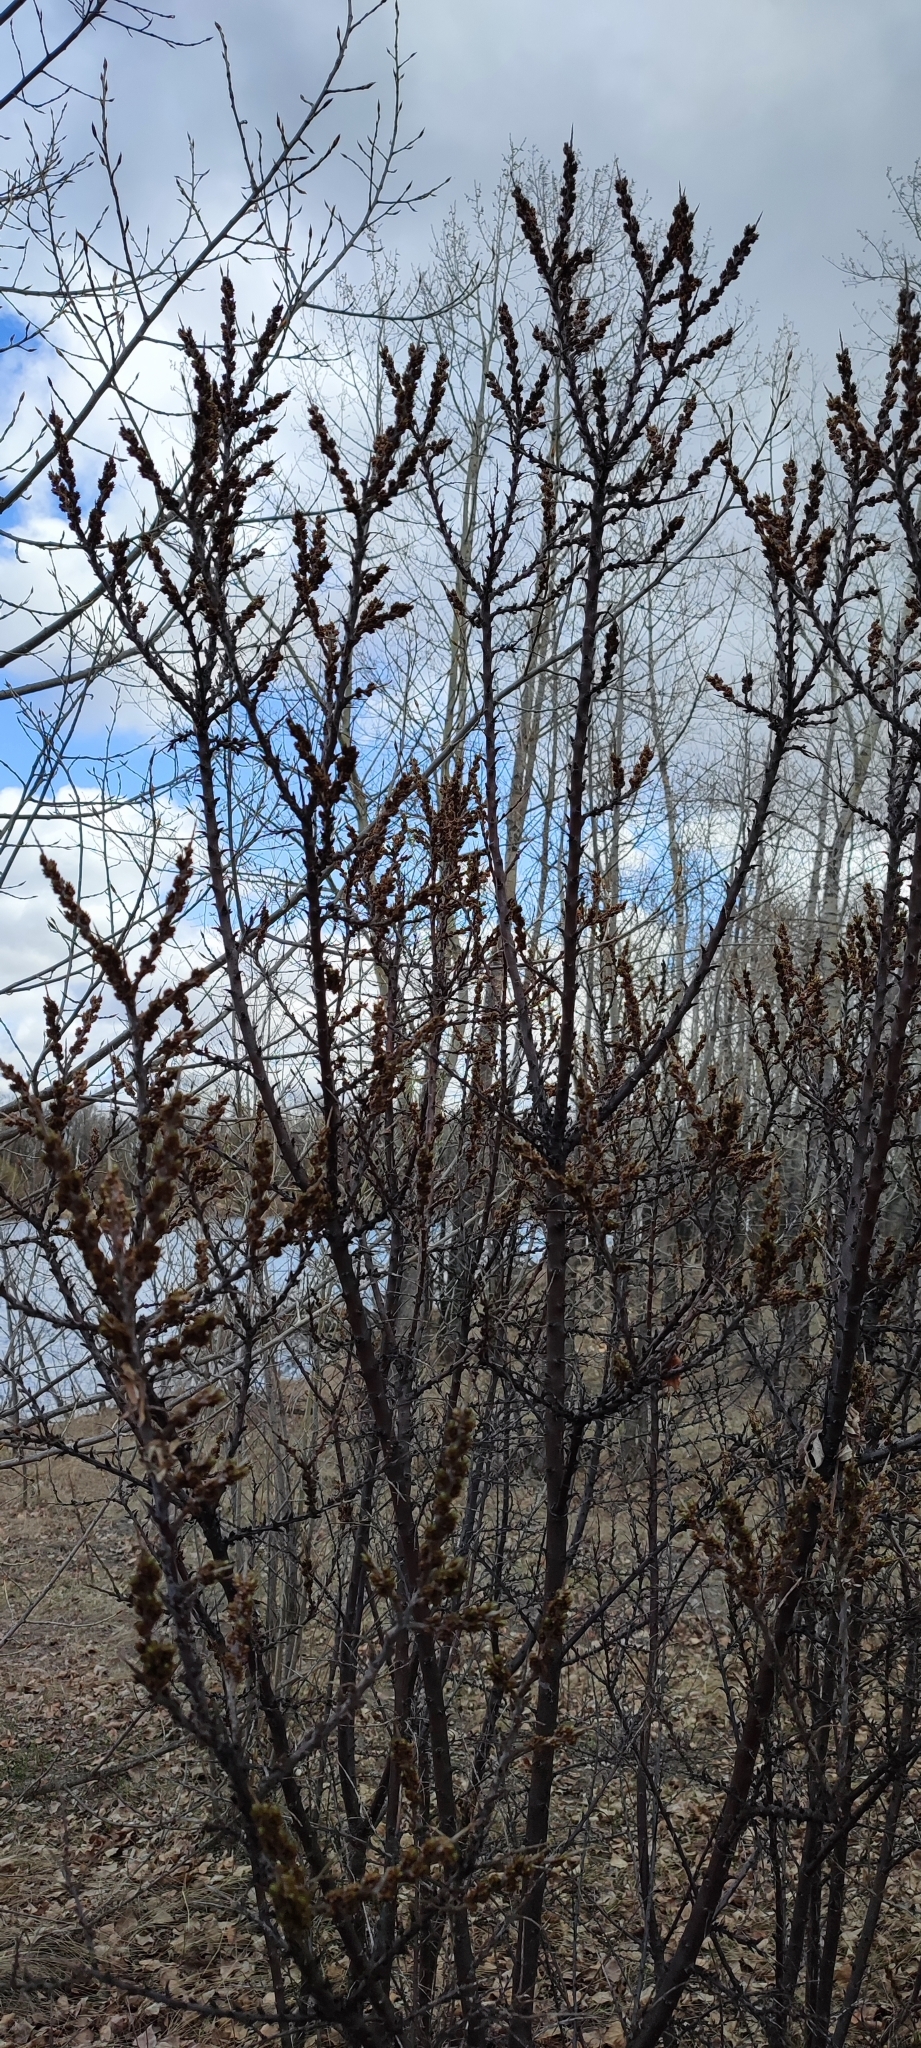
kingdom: Plantae
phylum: Tracheophyta
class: Magnoliopsida
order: Rosales
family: Elaeagnaceae
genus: Hippophae
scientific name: Hippophae rhamnoides
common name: Sea-buckthorn
